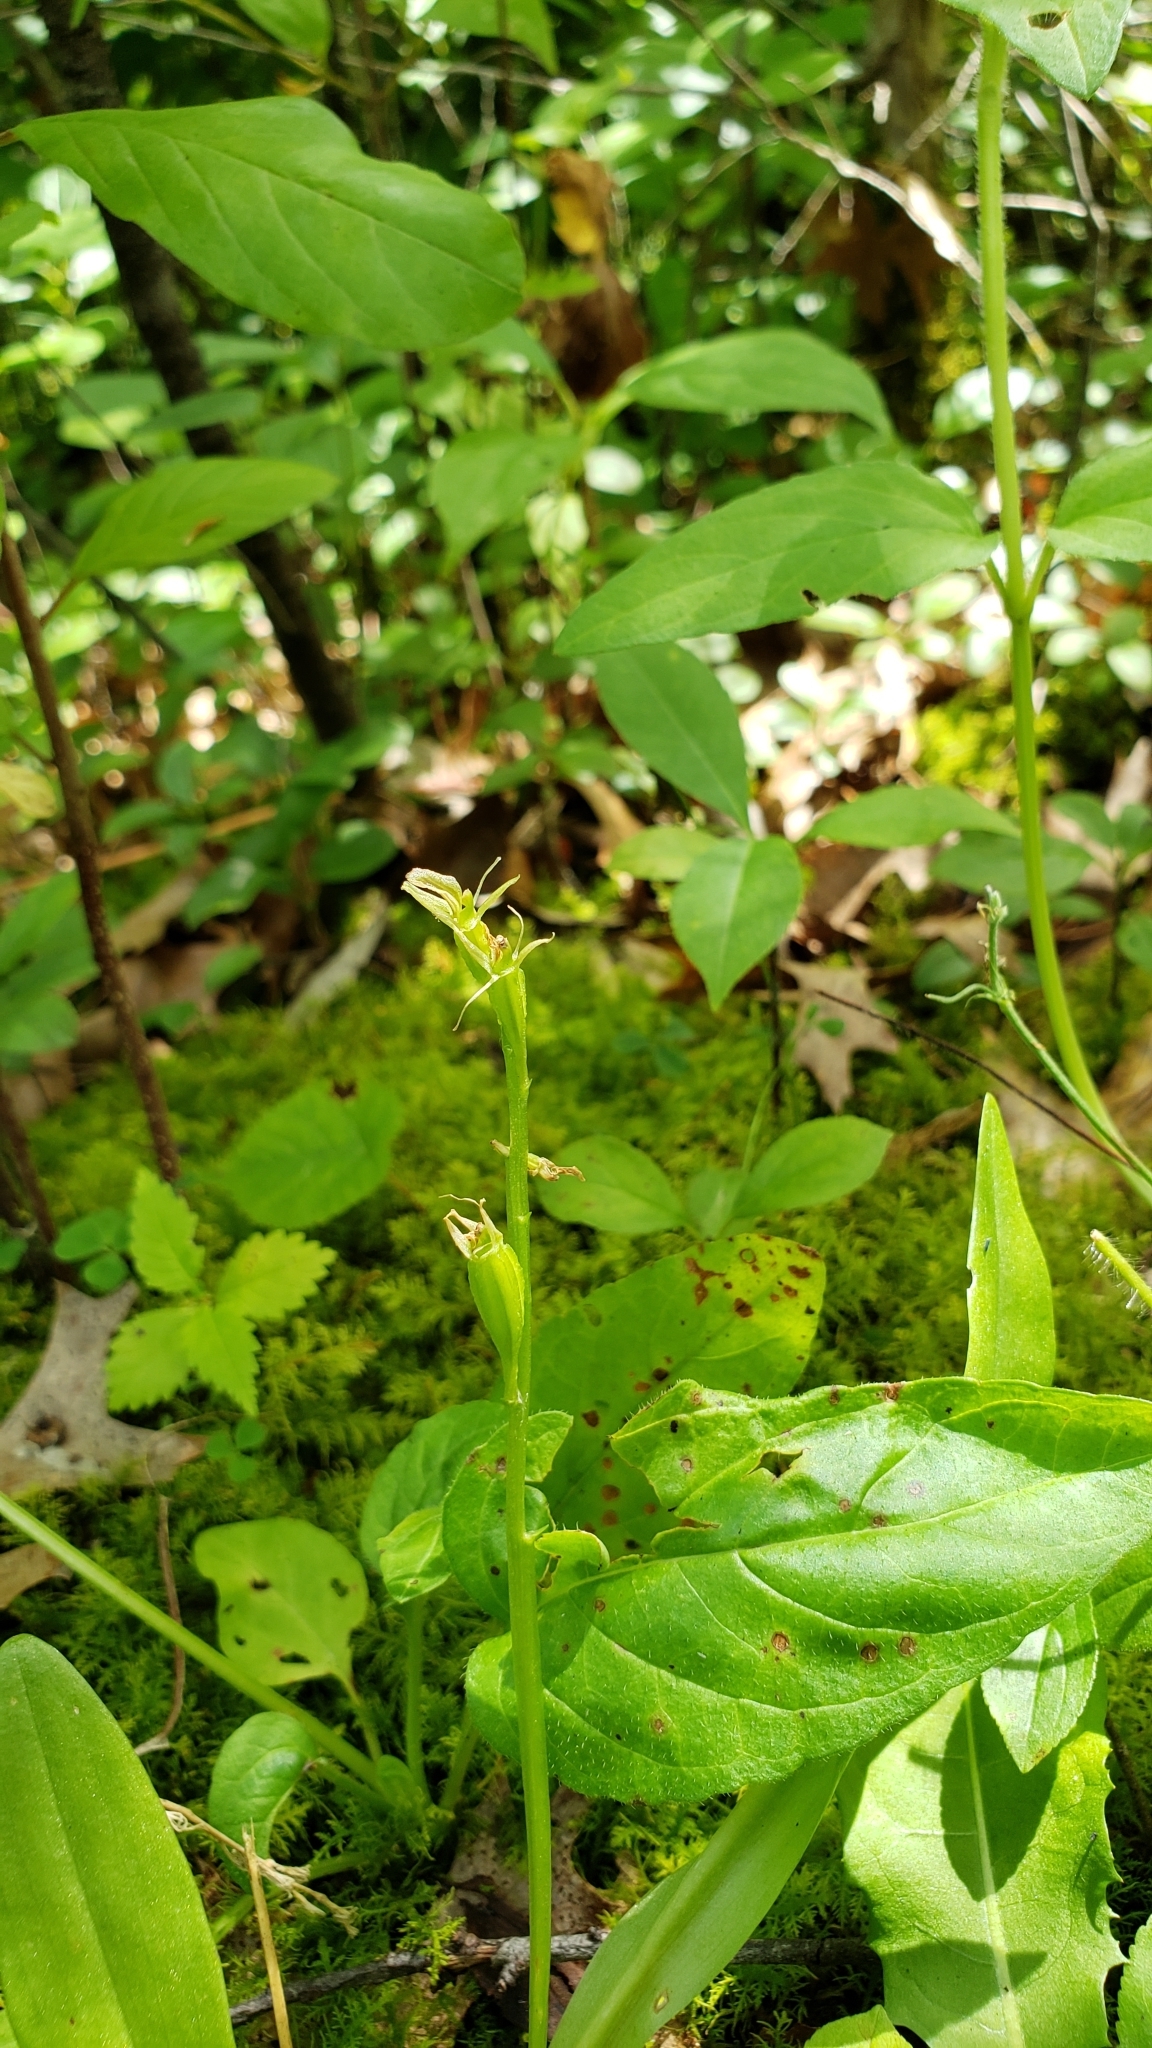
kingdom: Animalia
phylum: Arthropoda
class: Insecta
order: Coleoptera
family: Curculionidae
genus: Liparis
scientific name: Liparis loeselii
